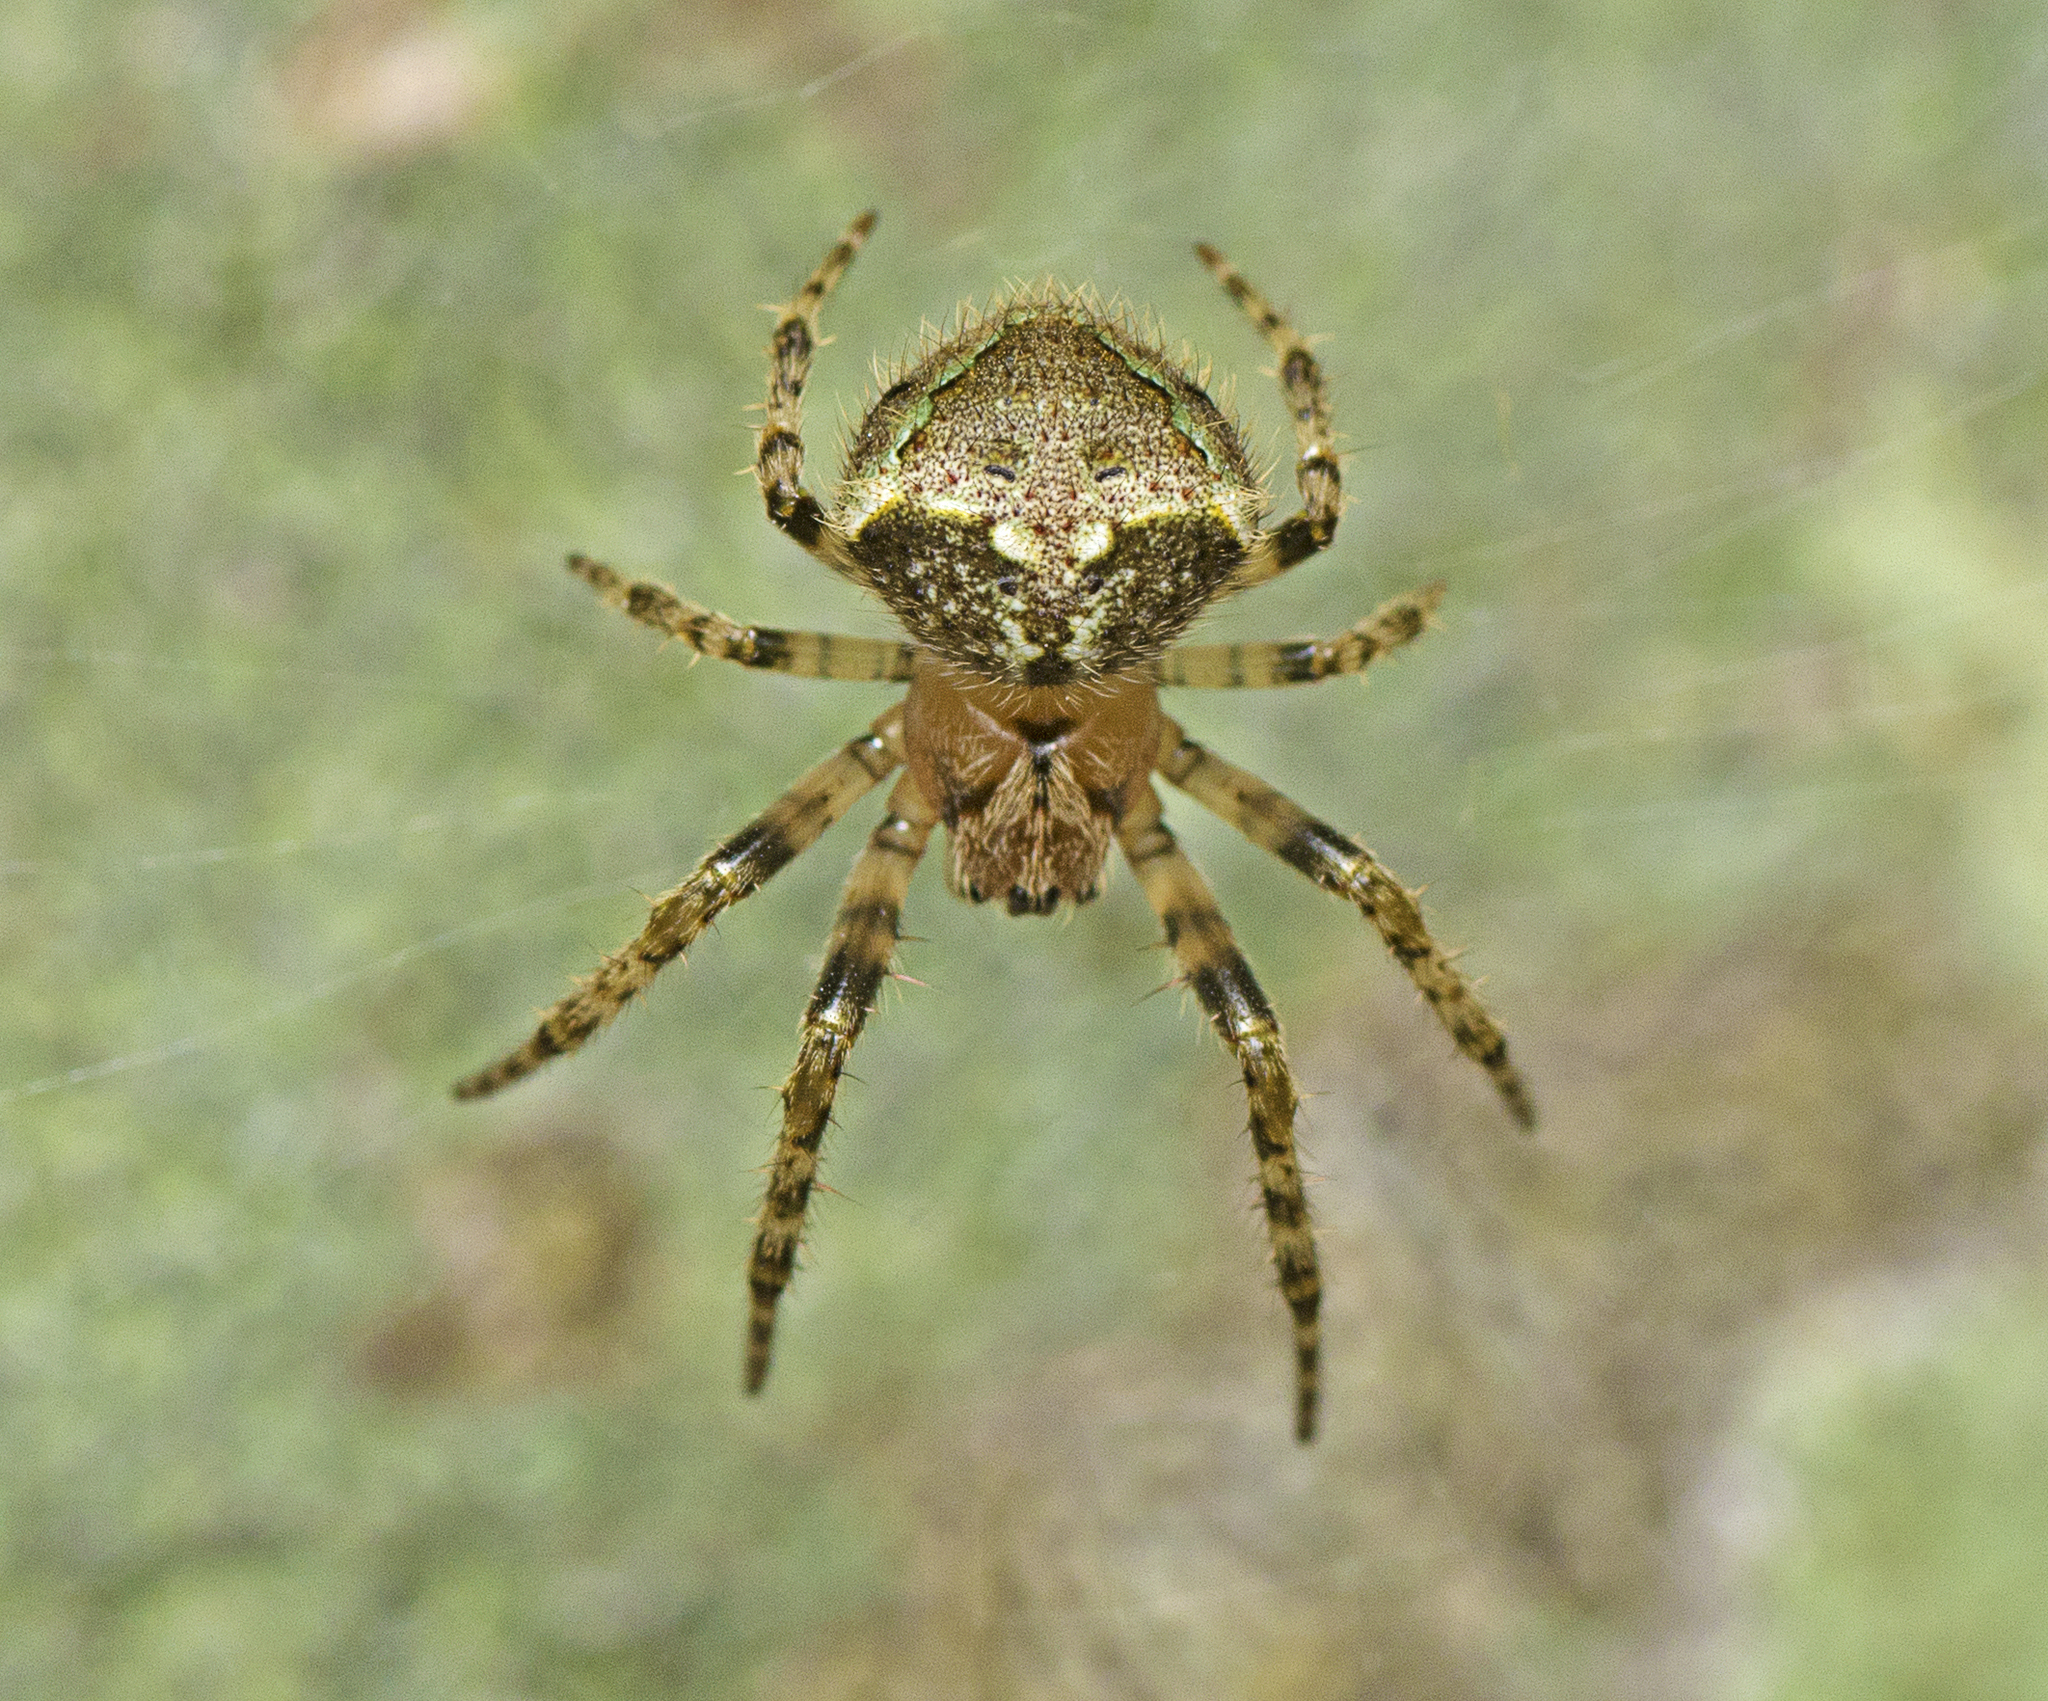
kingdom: Animalia
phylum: Arthropoda
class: Arachnida
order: Araneae
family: Araneidae
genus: Telaprocera
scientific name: Telaprocera maudae
